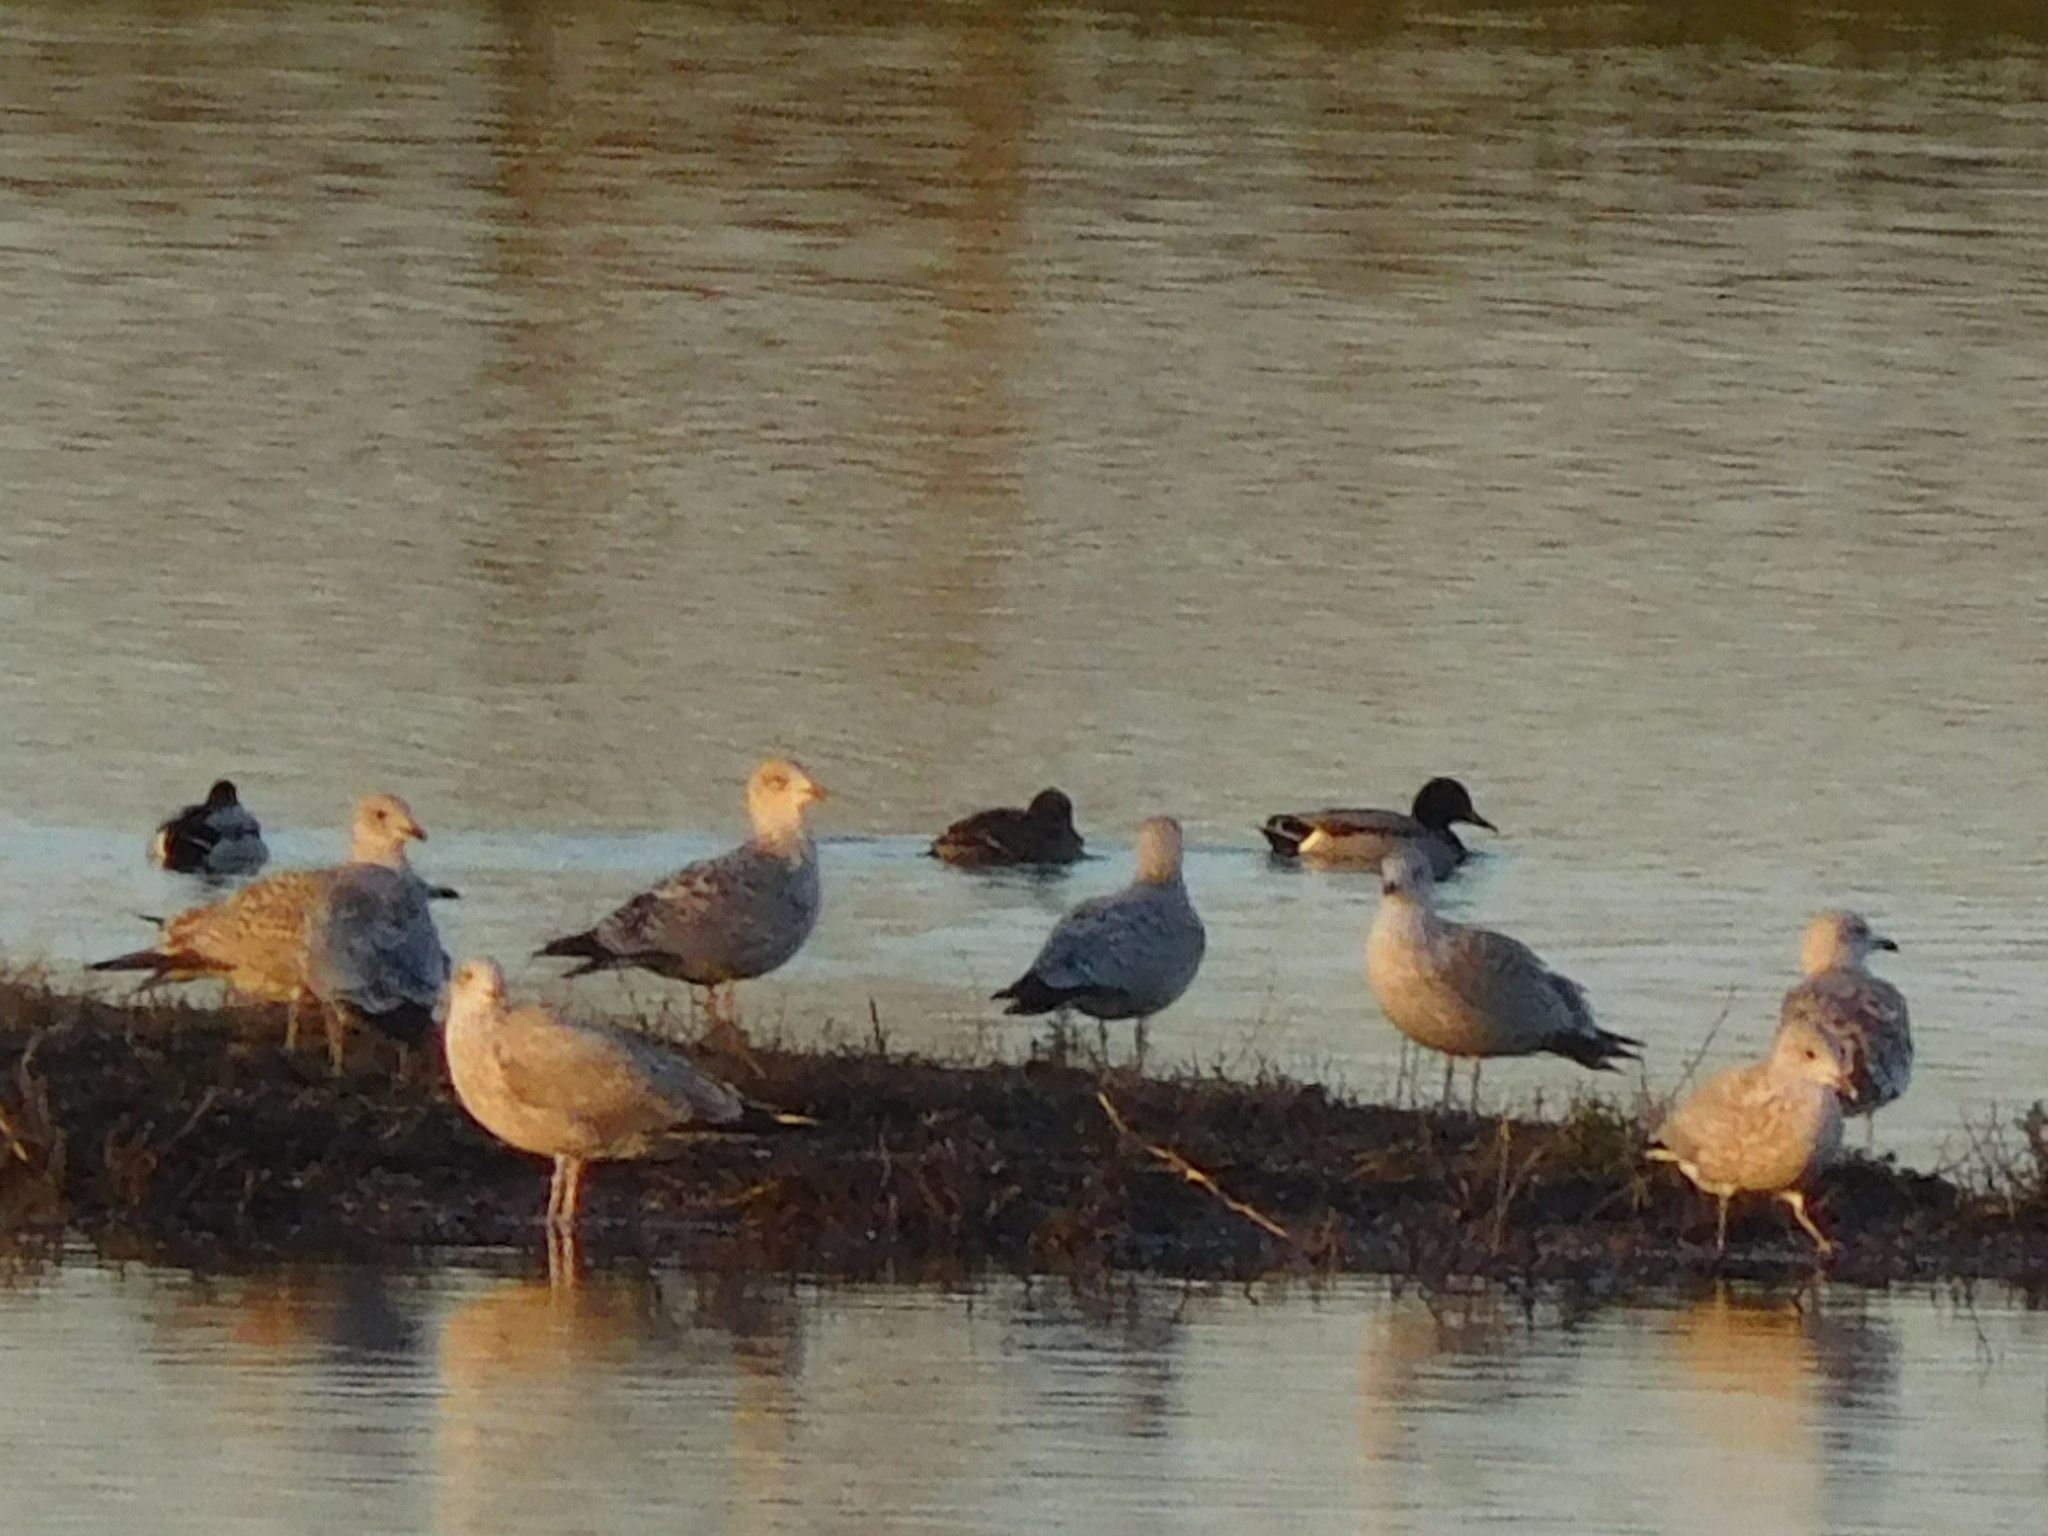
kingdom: Animalia
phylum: Chordata
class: Aves
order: Charadriiformes
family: Laridae
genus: Larus
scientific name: Larus argentatus
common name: Herring gull
